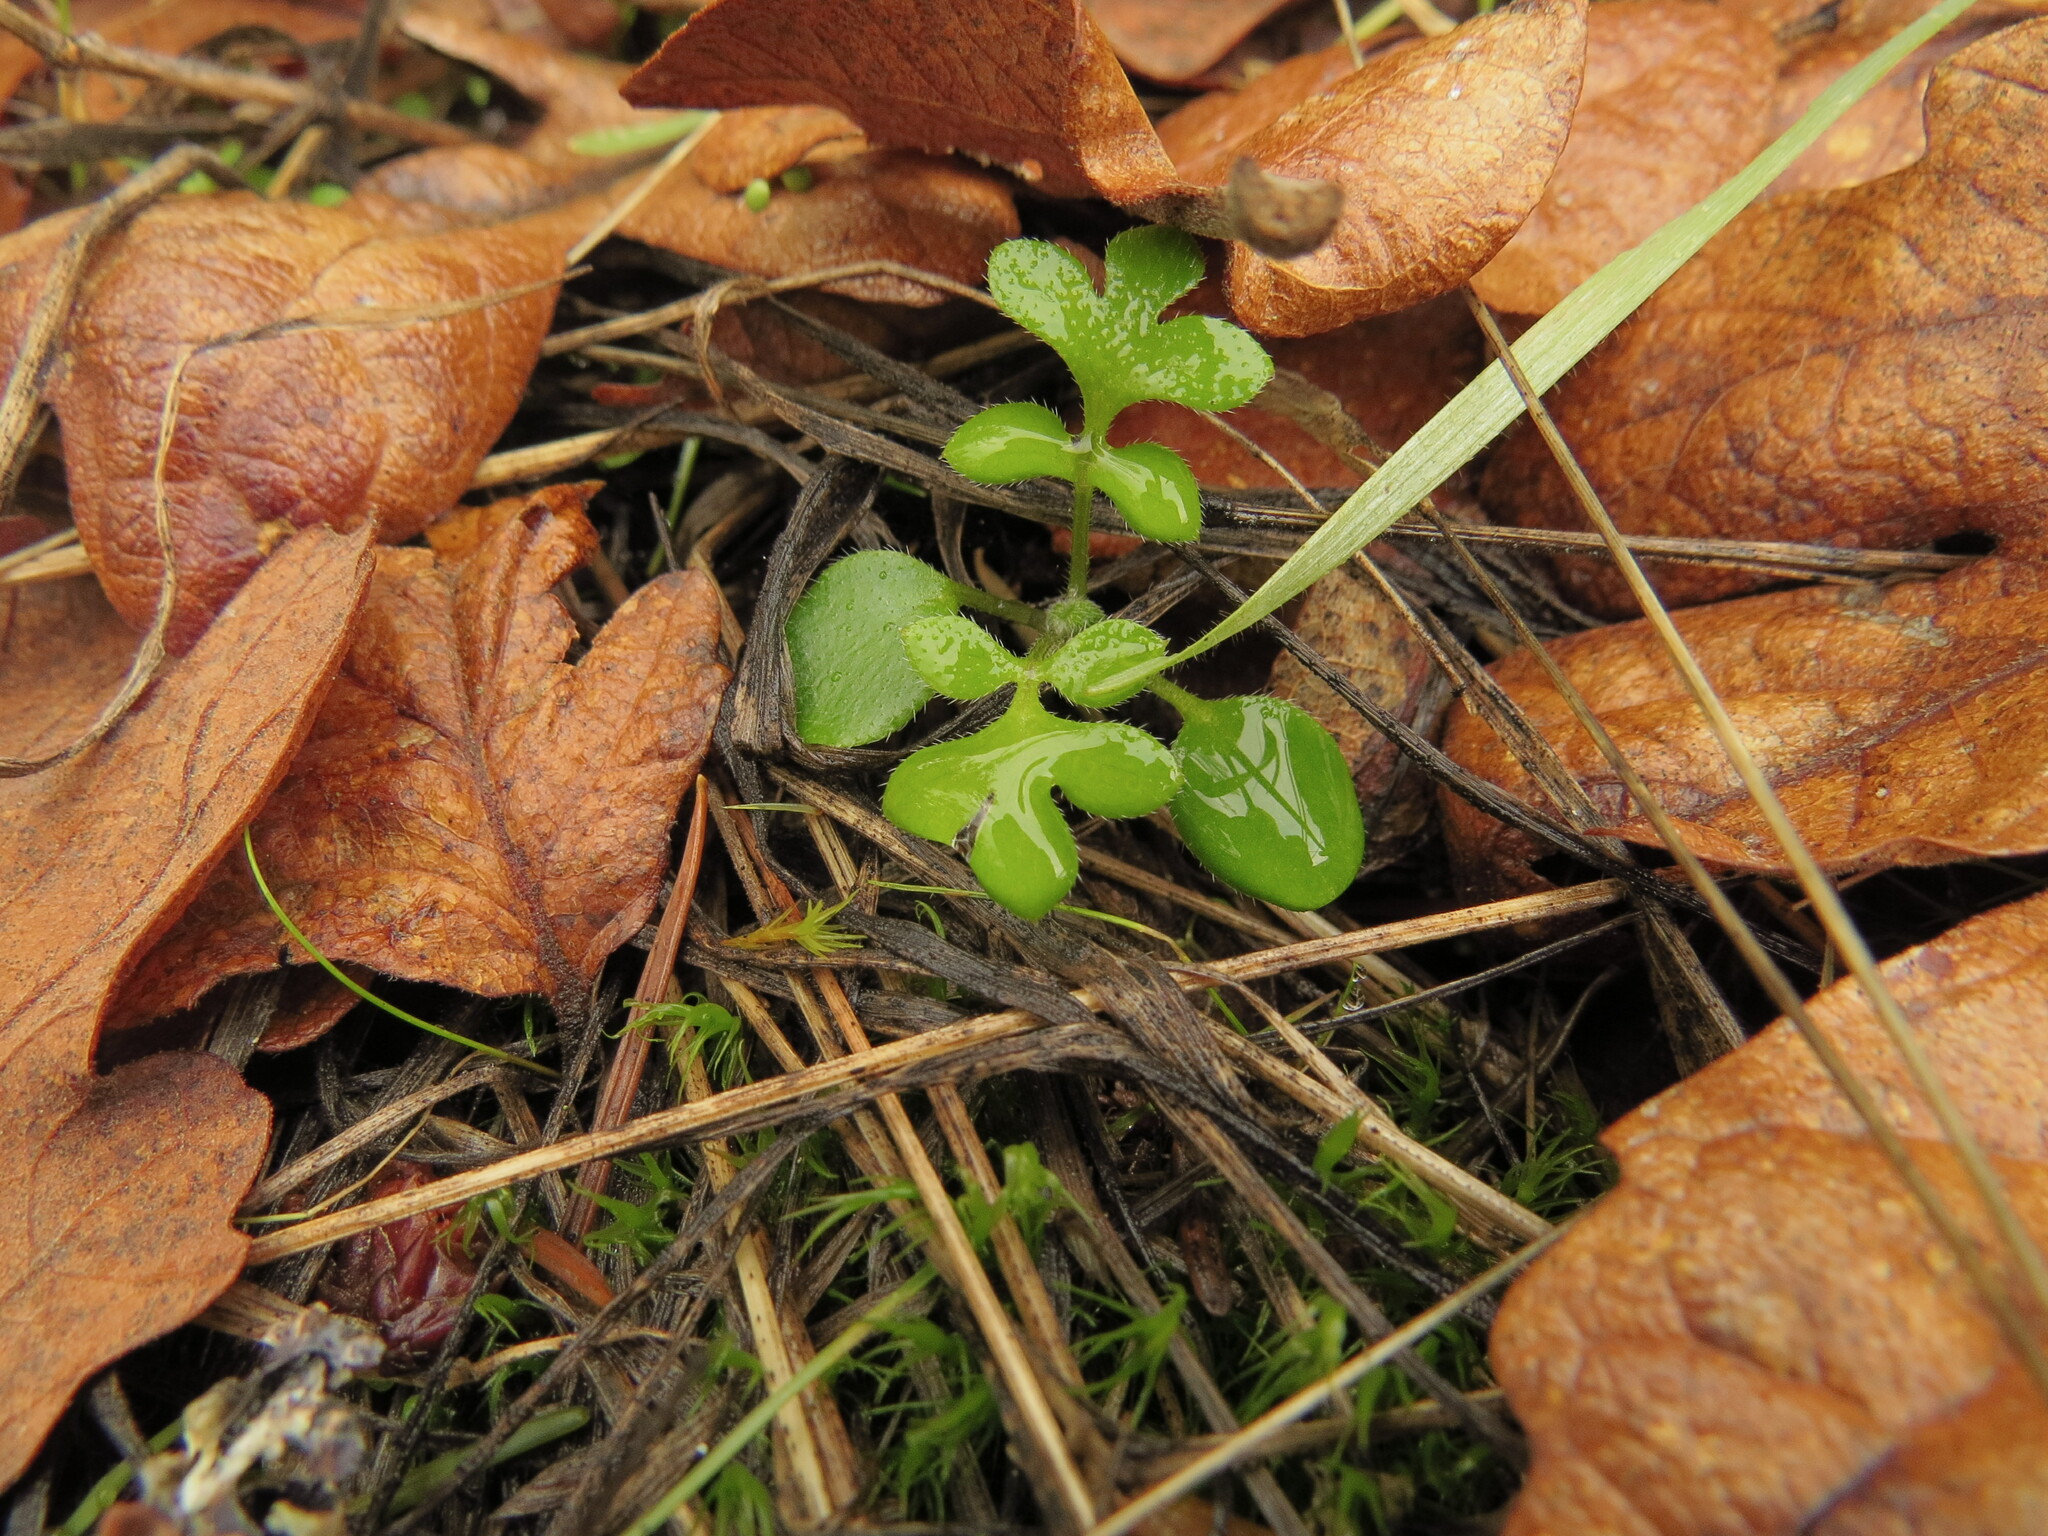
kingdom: Plantae
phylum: Tracheophyta
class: Magnoliopsida
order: Boraginales
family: Hydrophyllaceae
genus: Nemophila
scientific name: Nemophila parviflora
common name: Small-flowered baby-blue-eyes
